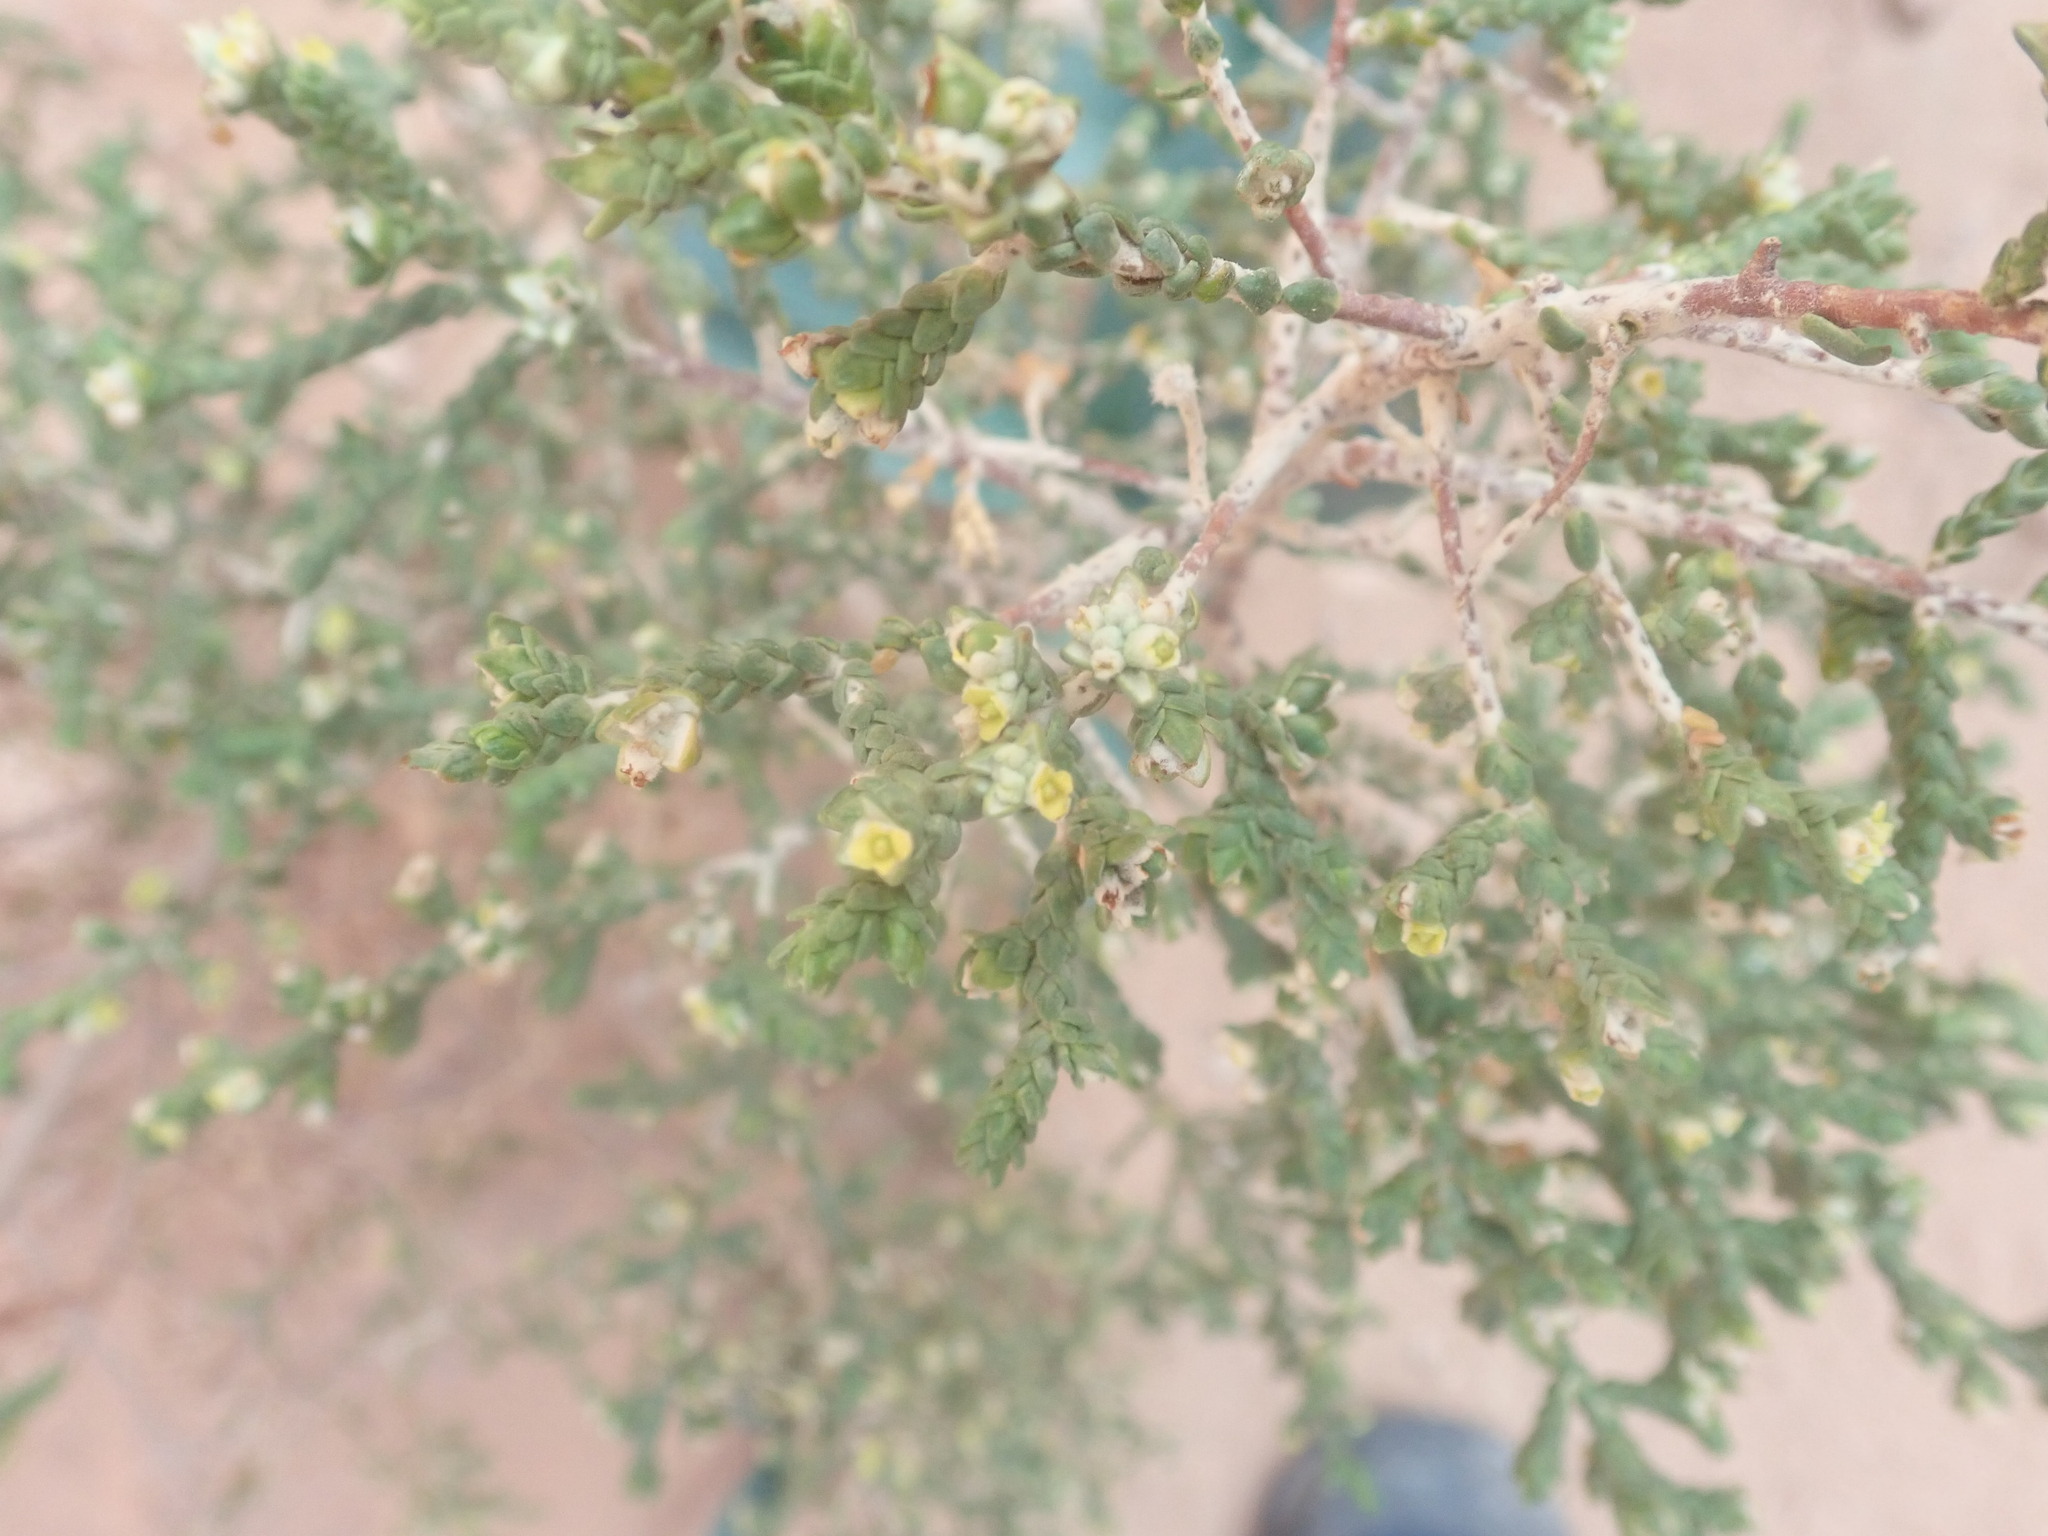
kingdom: Plantae
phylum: Tracheophyta
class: Magnoliopsida
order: Malvales
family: Thymelaeaceae
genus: Thymelaea
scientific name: Thymelaea hirsuta
